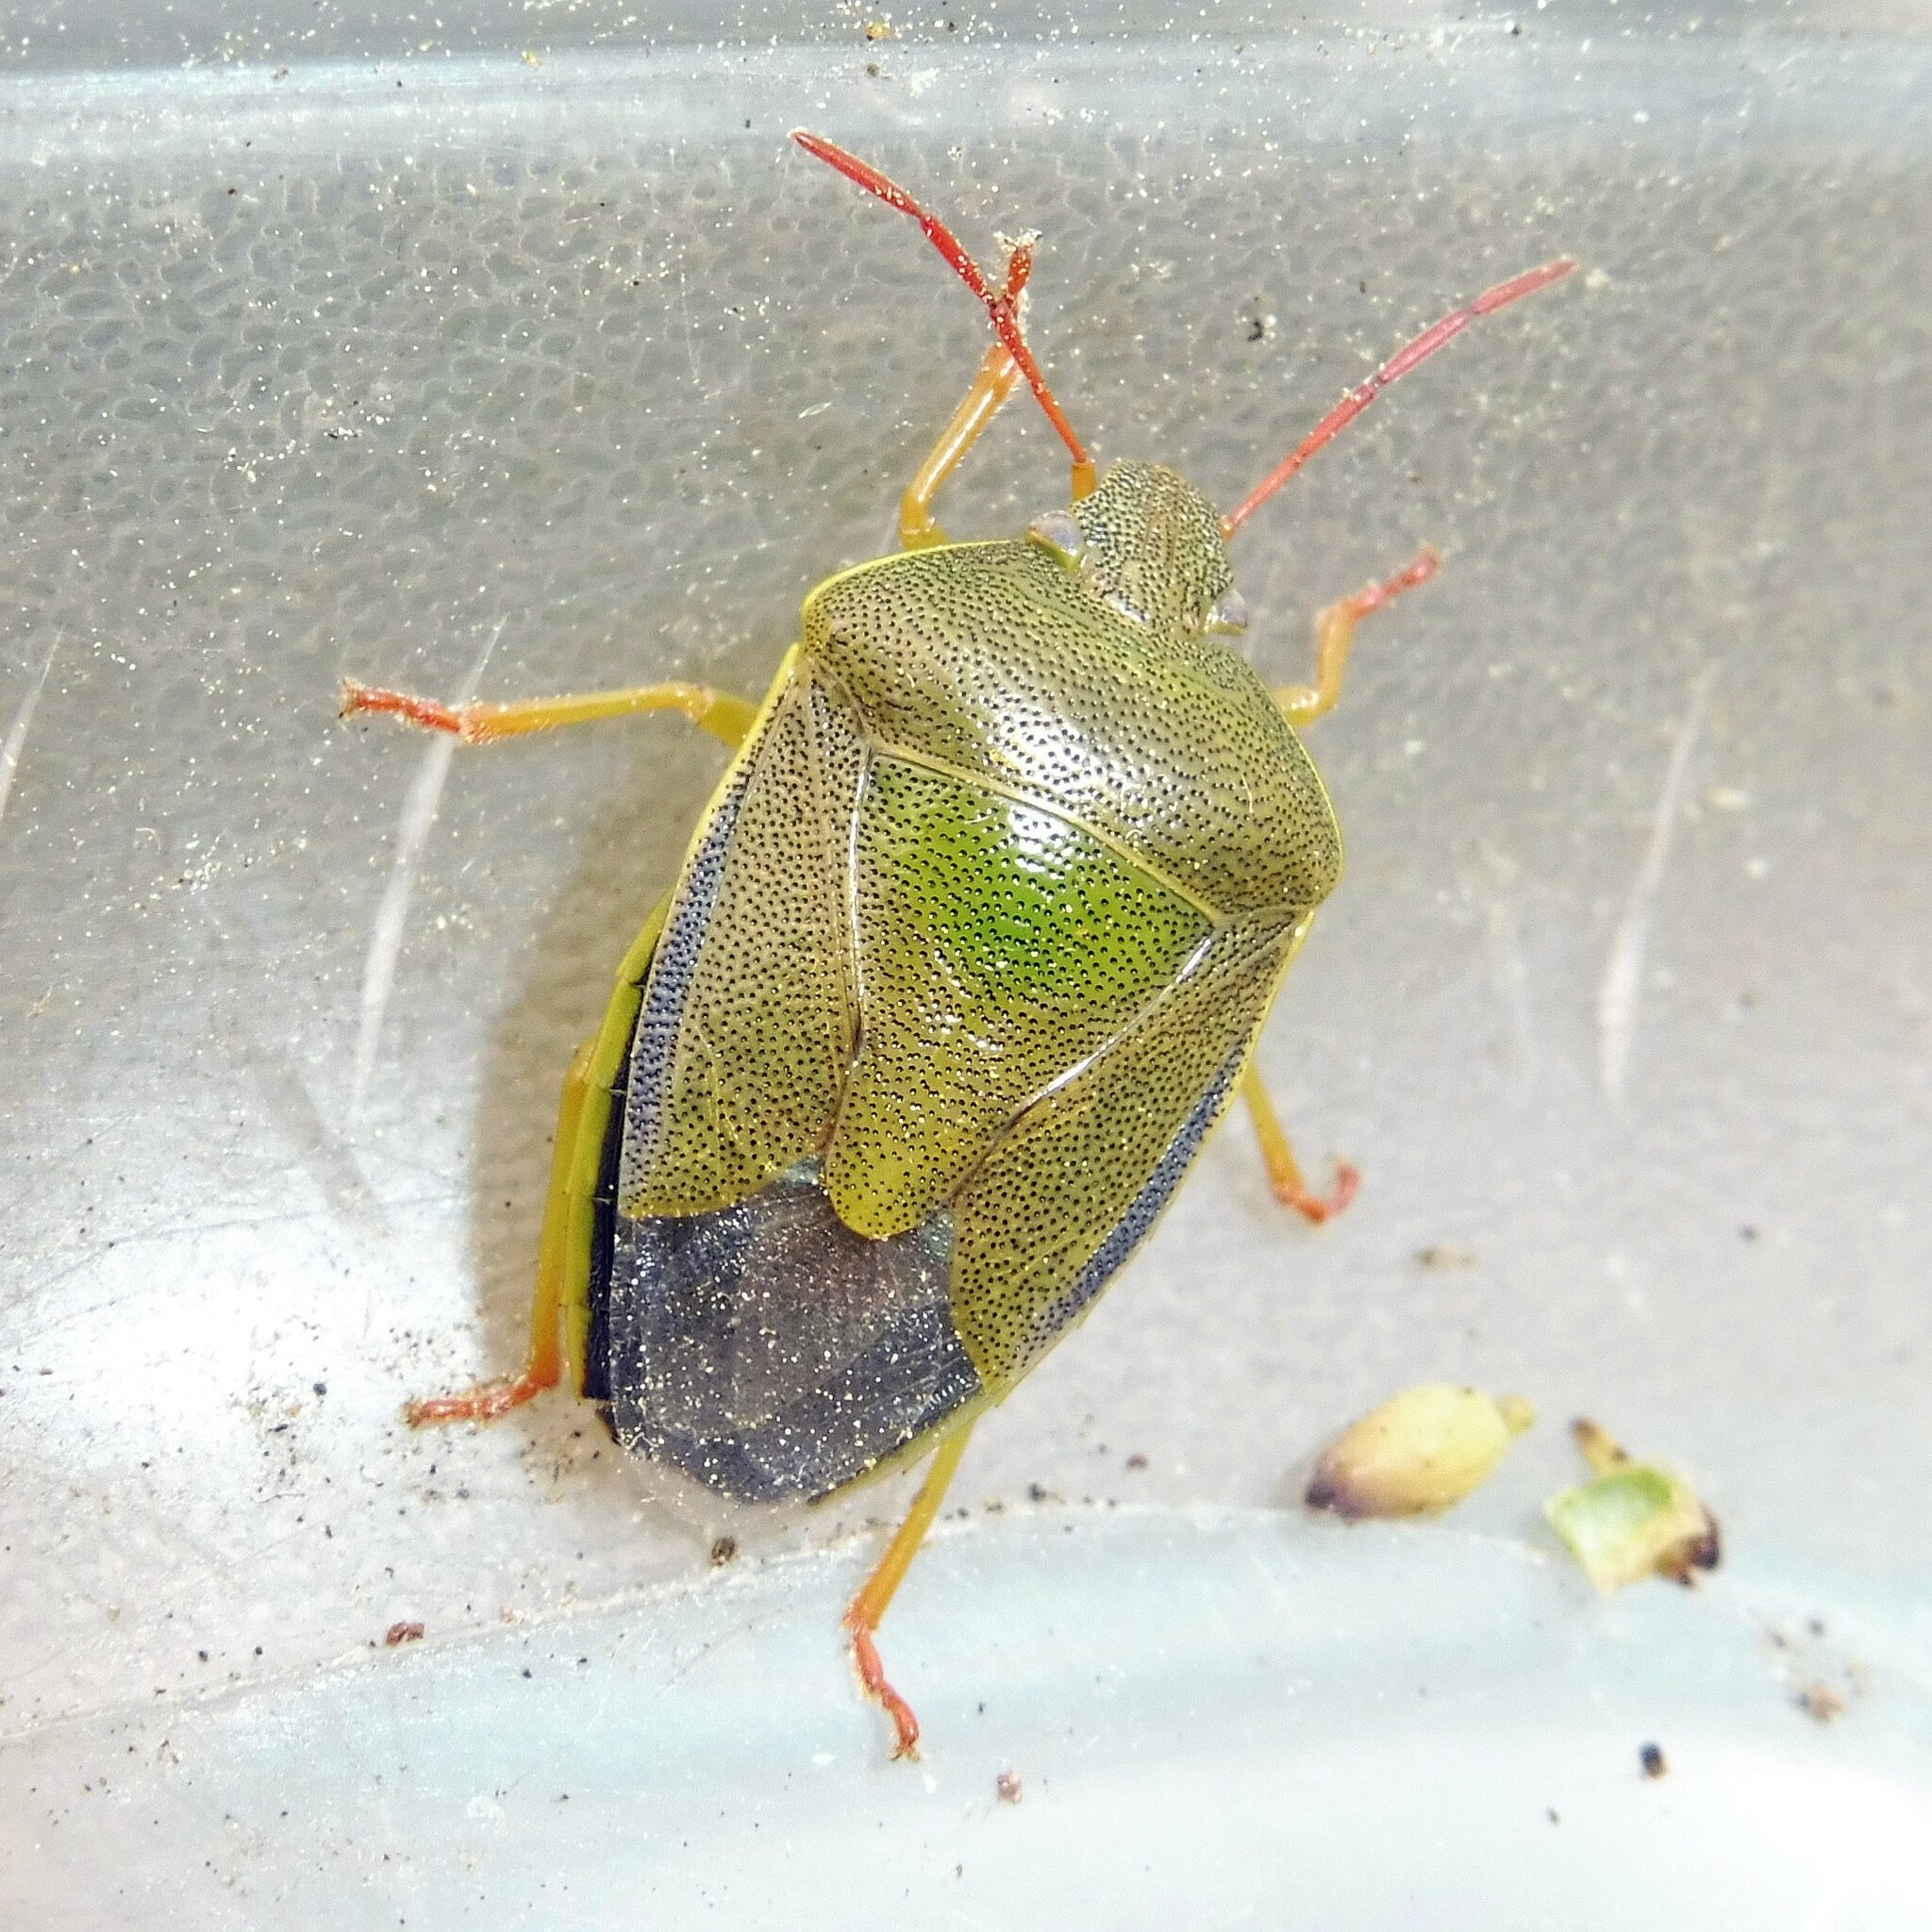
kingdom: Animalia
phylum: Arthropoda
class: Insecta
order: Hemiptera
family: Pentatomidae
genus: Piezodorus
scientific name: Piezodorus lituratus
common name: Stink bug
